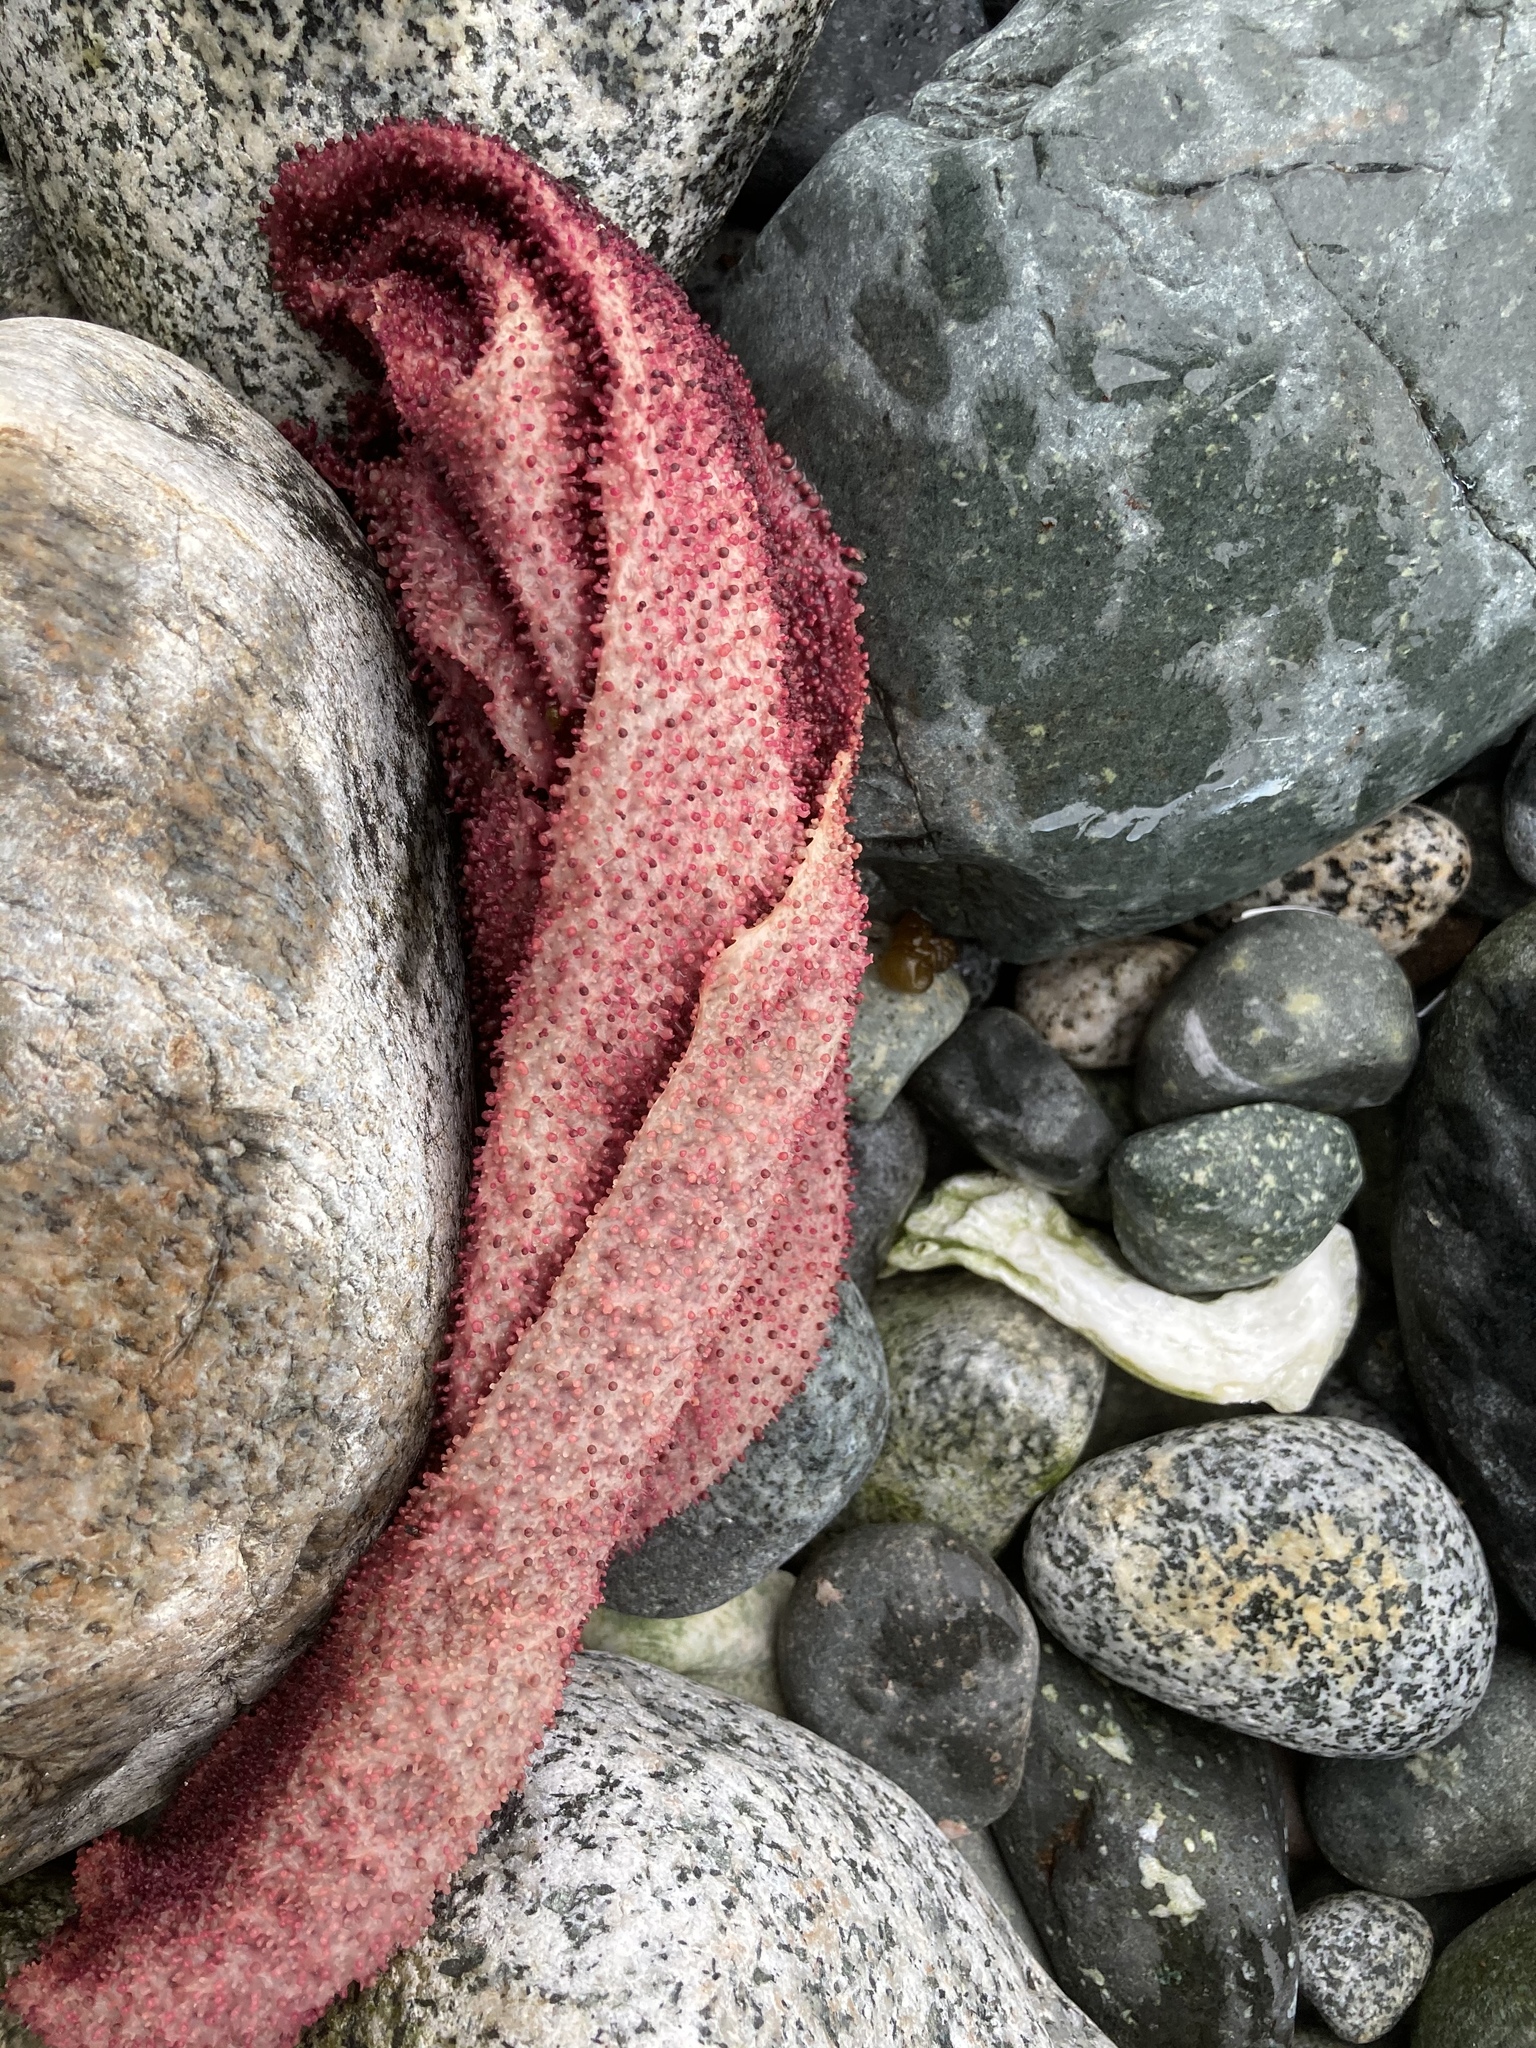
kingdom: Plantae
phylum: Rhodophyta
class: Florideophyceae
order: Gigartinales
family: Gigartinaceae
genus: Chondracanthus
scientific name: Chondracanthus exasperatus
